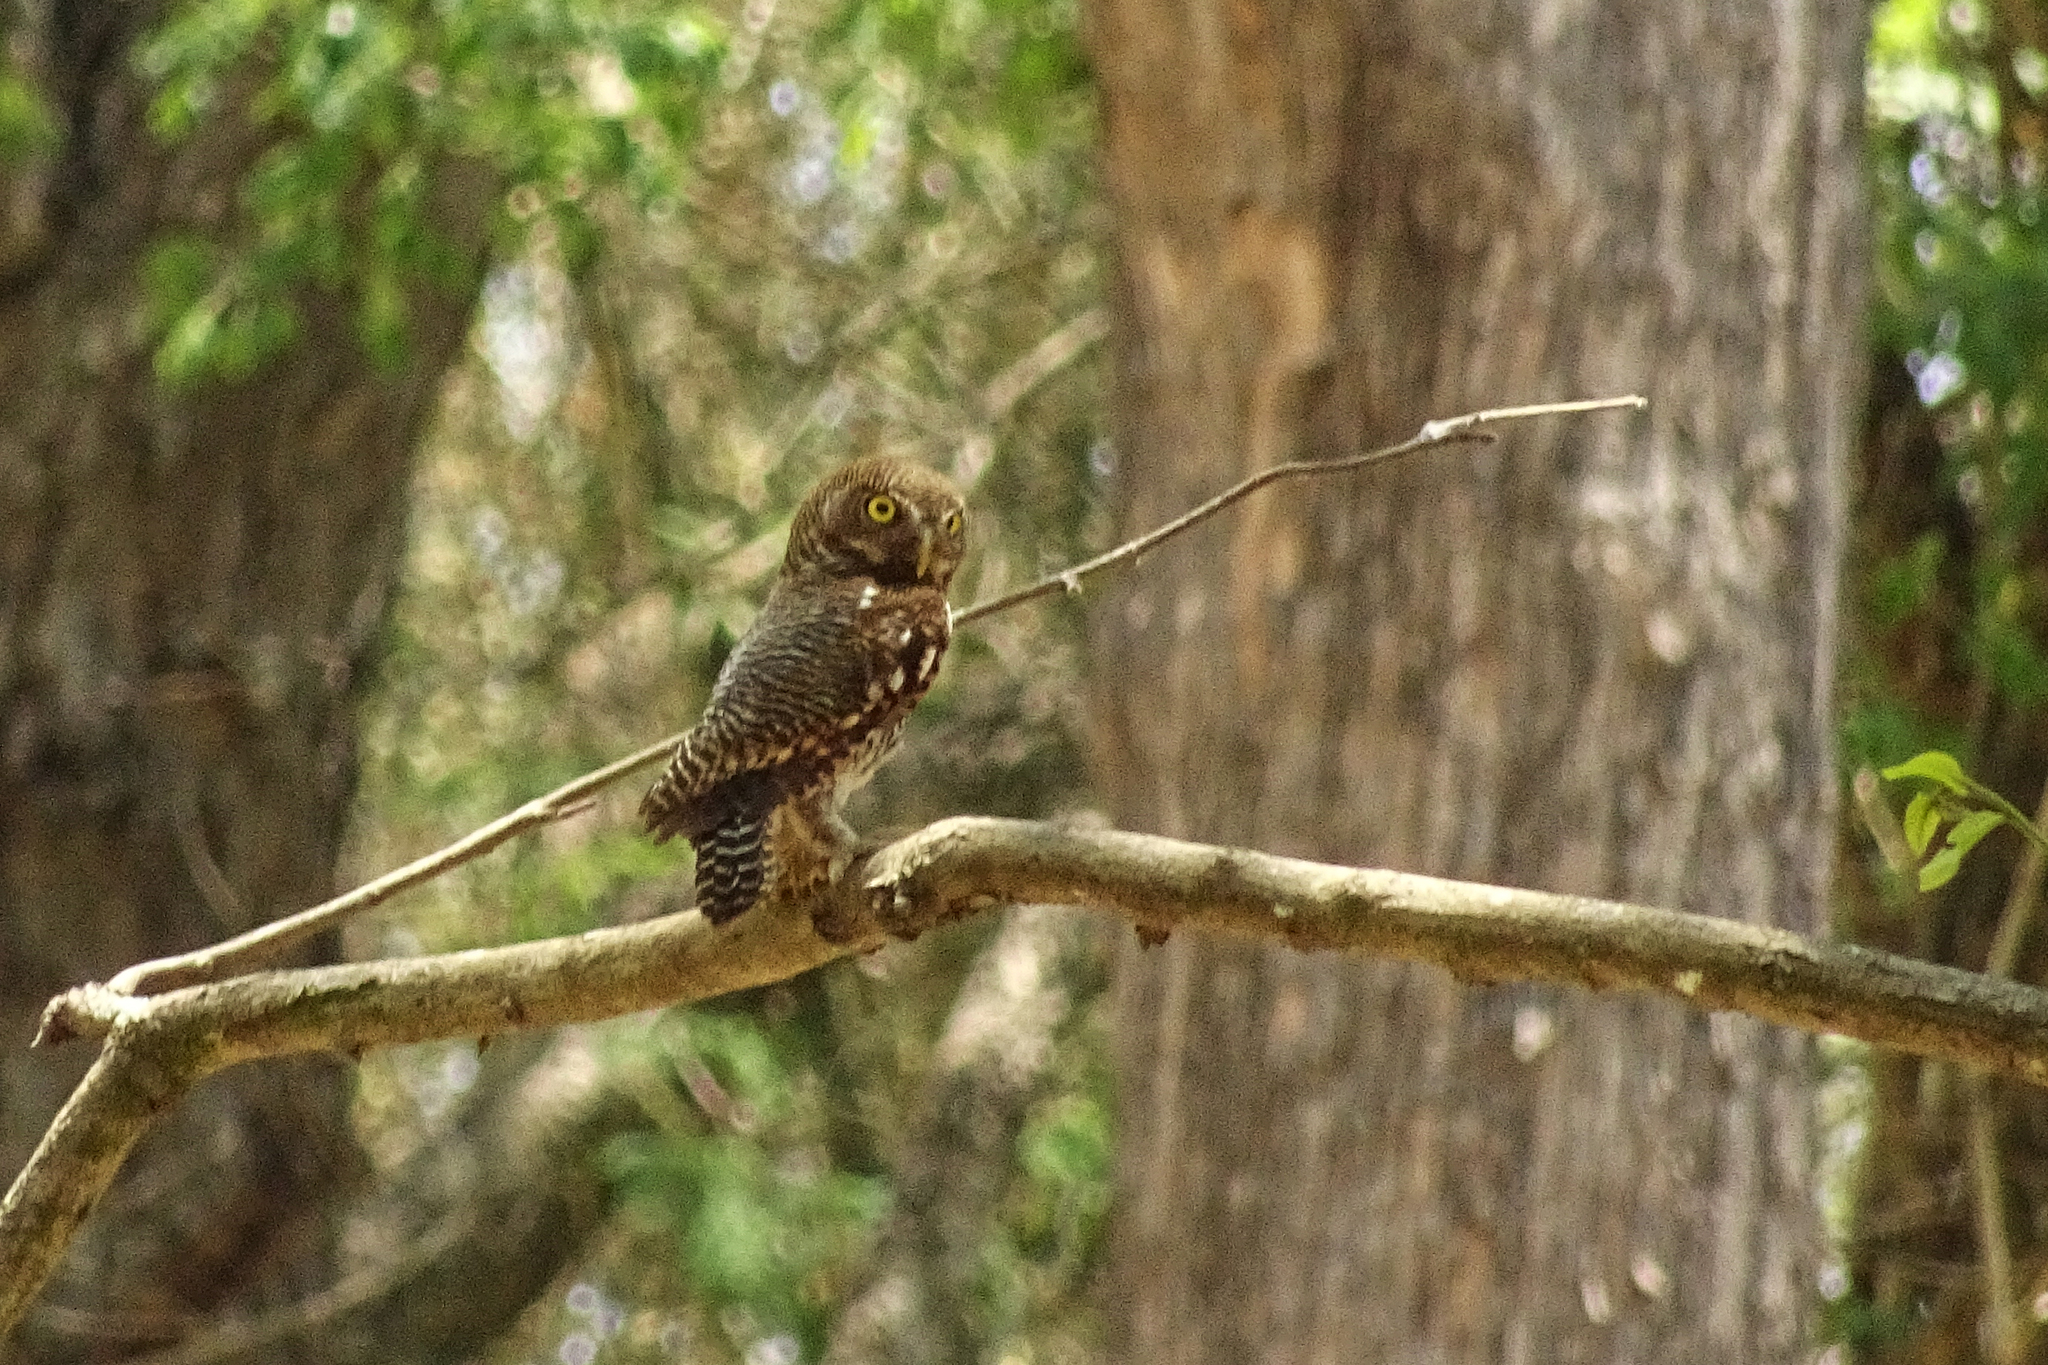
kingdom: Animalia
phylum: Chordata
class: Aves
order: Strigiformes
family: Strigidae
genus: Glaucidium
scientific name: Glaucidium radiatum
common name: Jungle owlet
